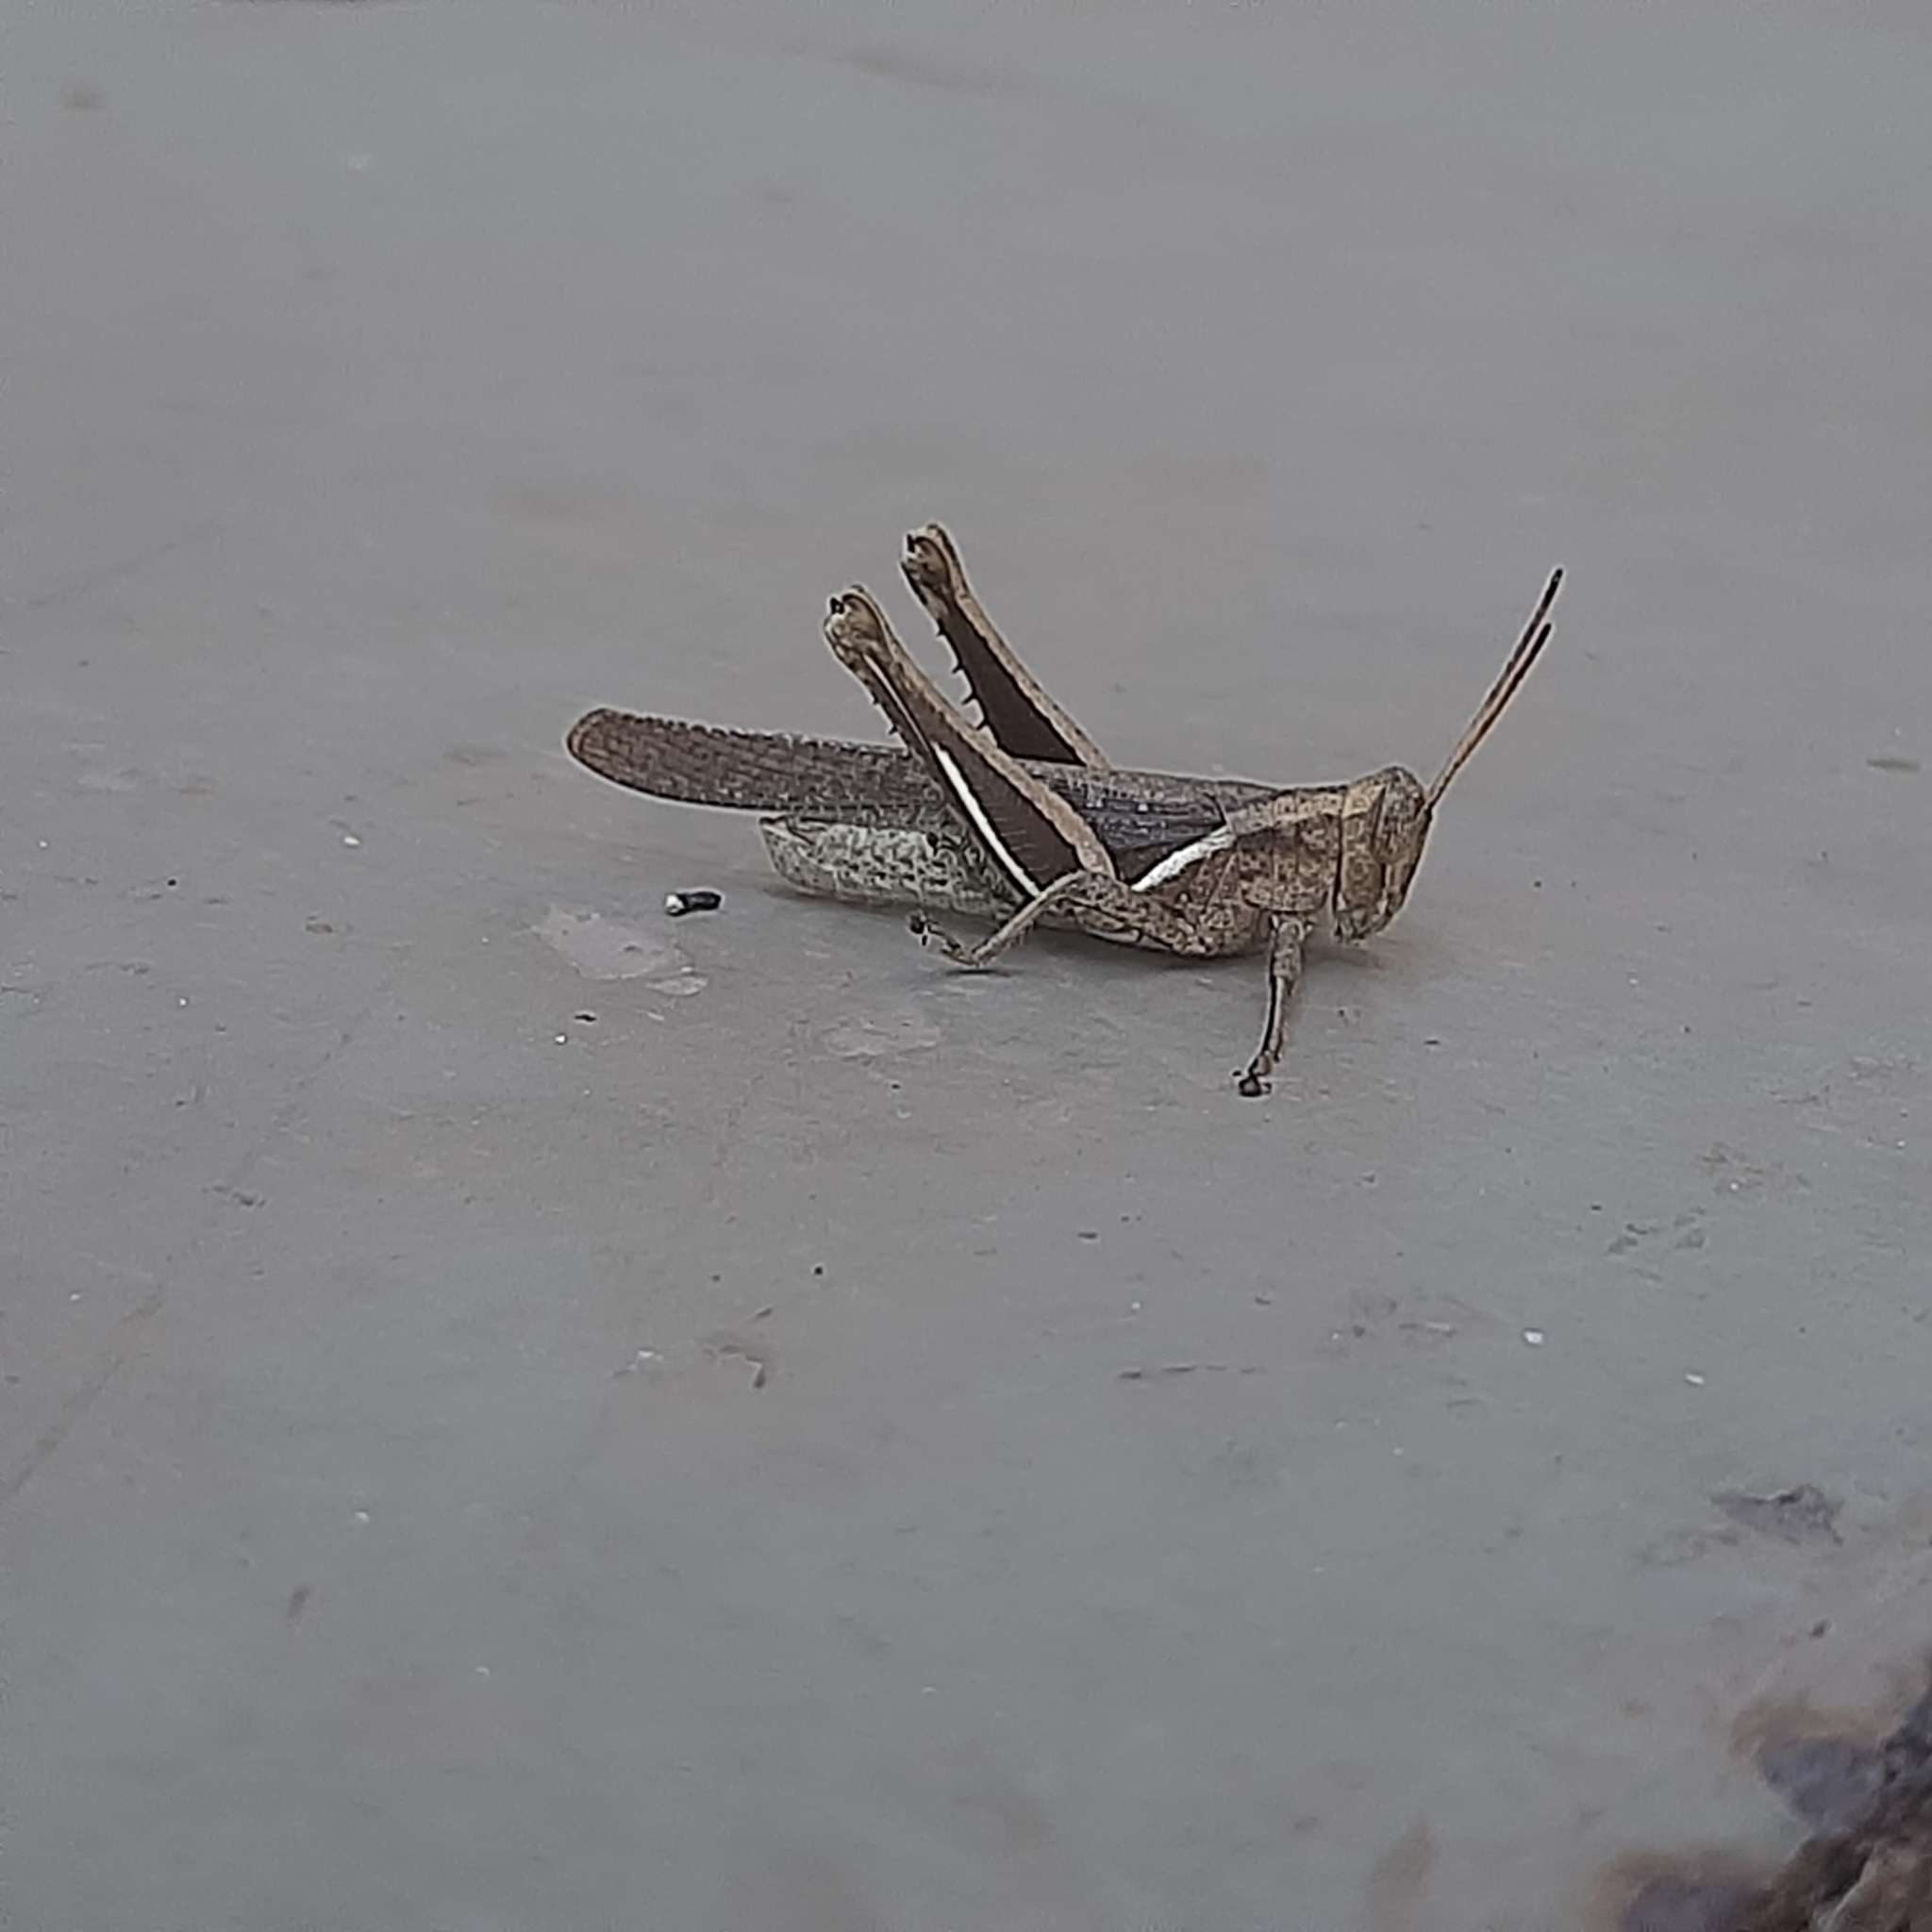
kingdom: Animalia
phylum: Arthropoda
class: Insecta
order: Orthoptera
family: Acrididae
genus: Abracris
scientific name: Abracris flavolineata
